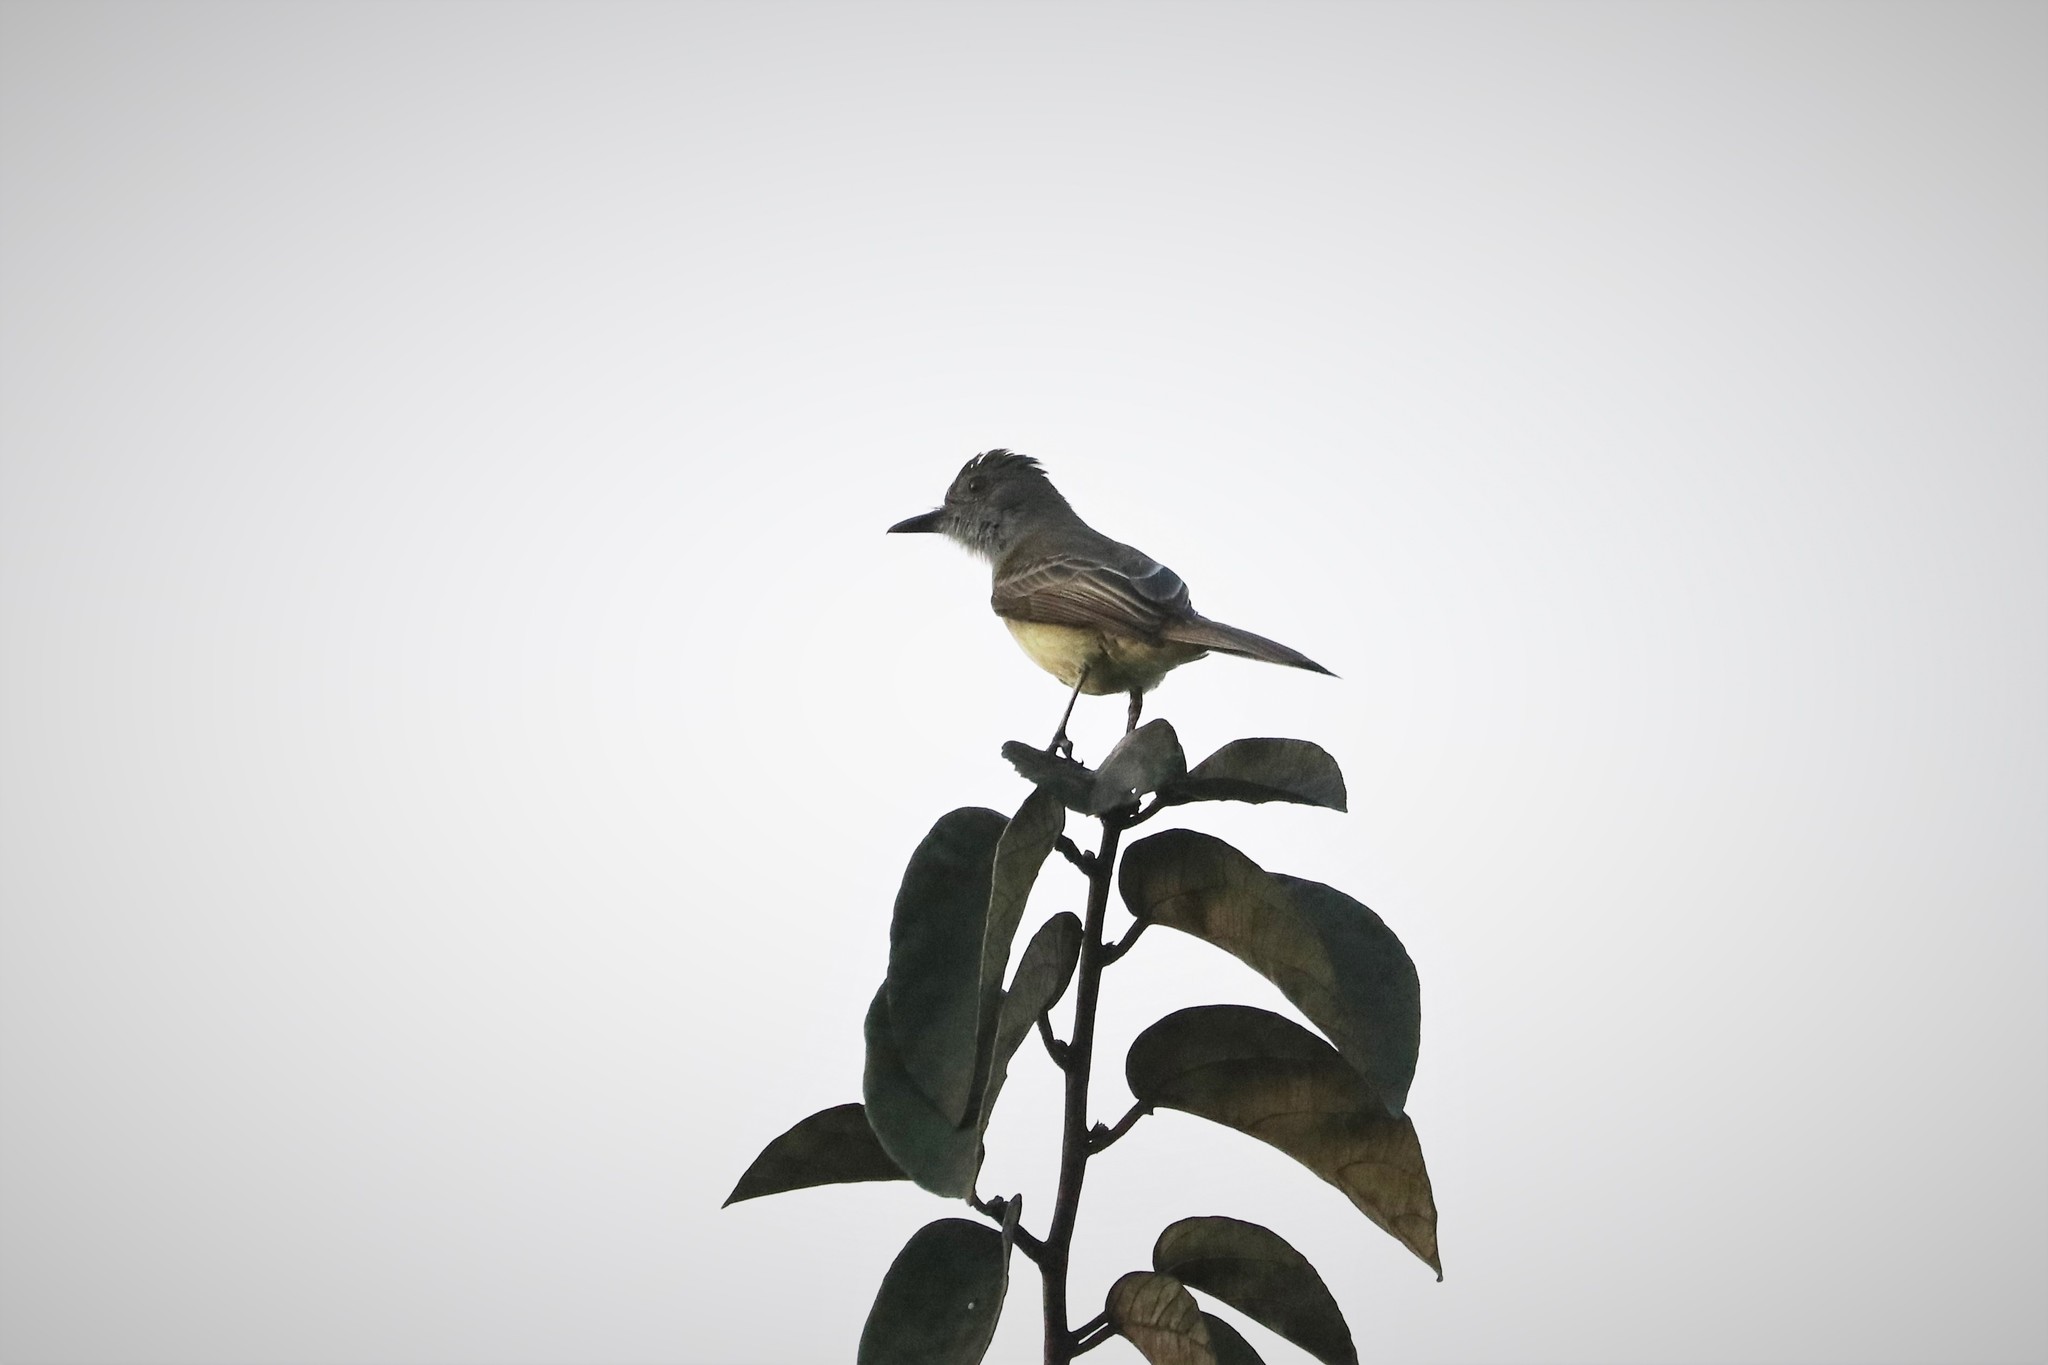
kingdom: Animalia
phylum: Chordata
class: Aves
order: Passeriformes
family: Tyrannidae
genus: Myiarchus
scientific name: Myiarchus ferox
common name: Short-crested flycatcher
